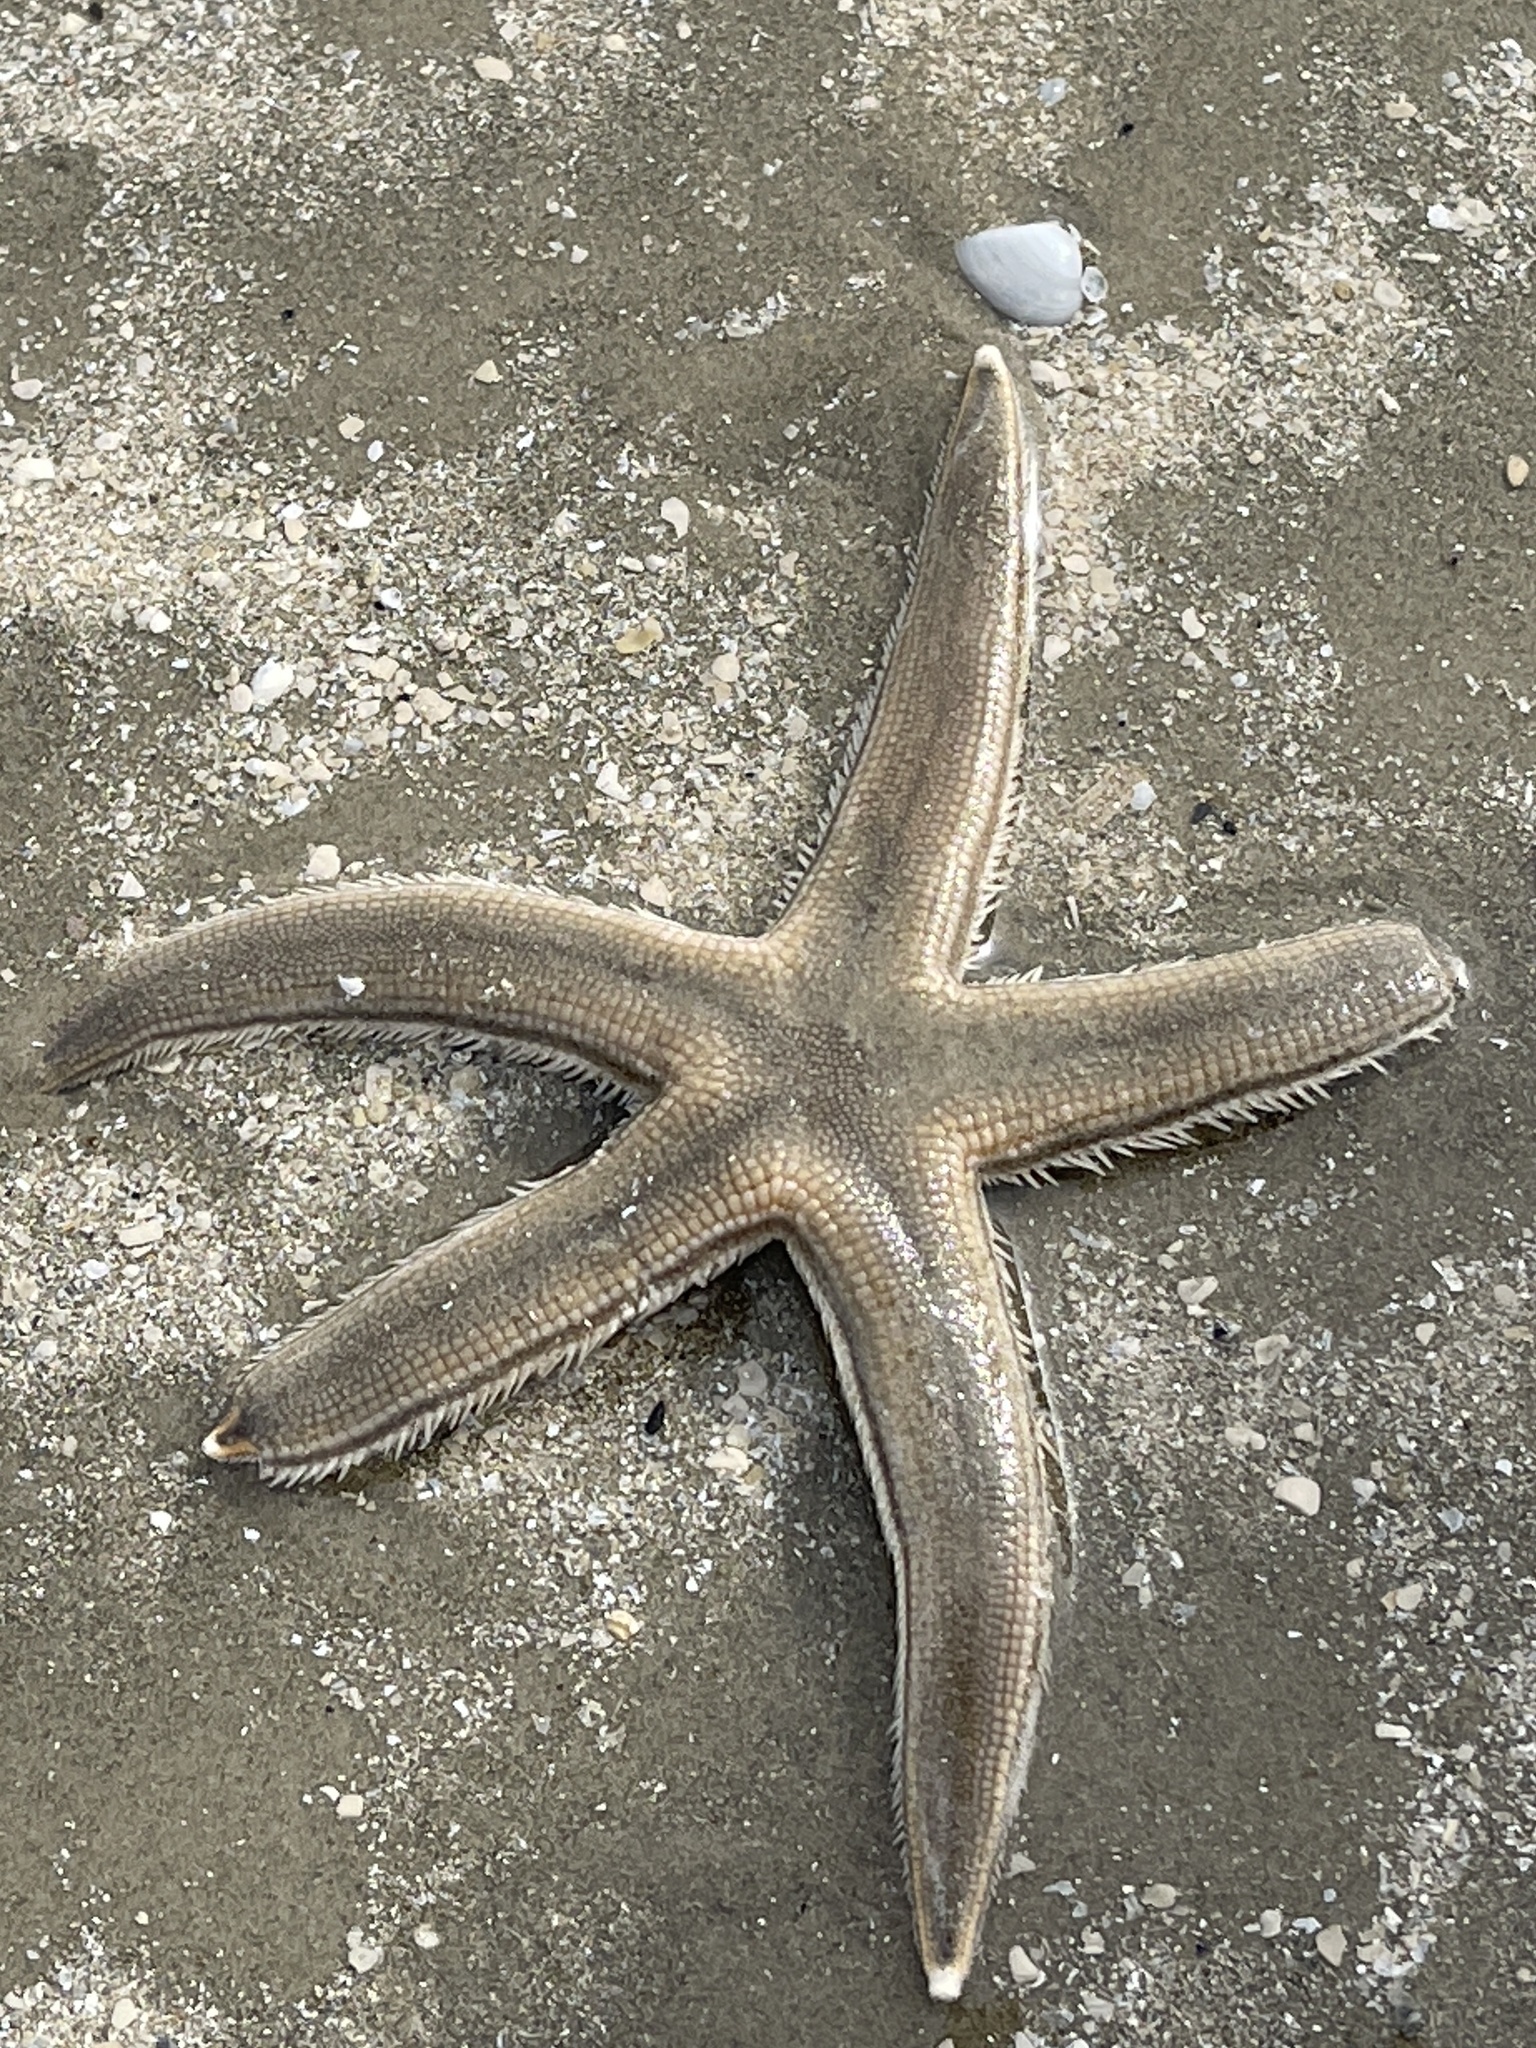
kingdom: Animalia
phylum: Echinodermata
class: Asteroidea
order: Paxillosida
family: Luidiidae
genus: Luidia
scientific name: Luidia clathrata
